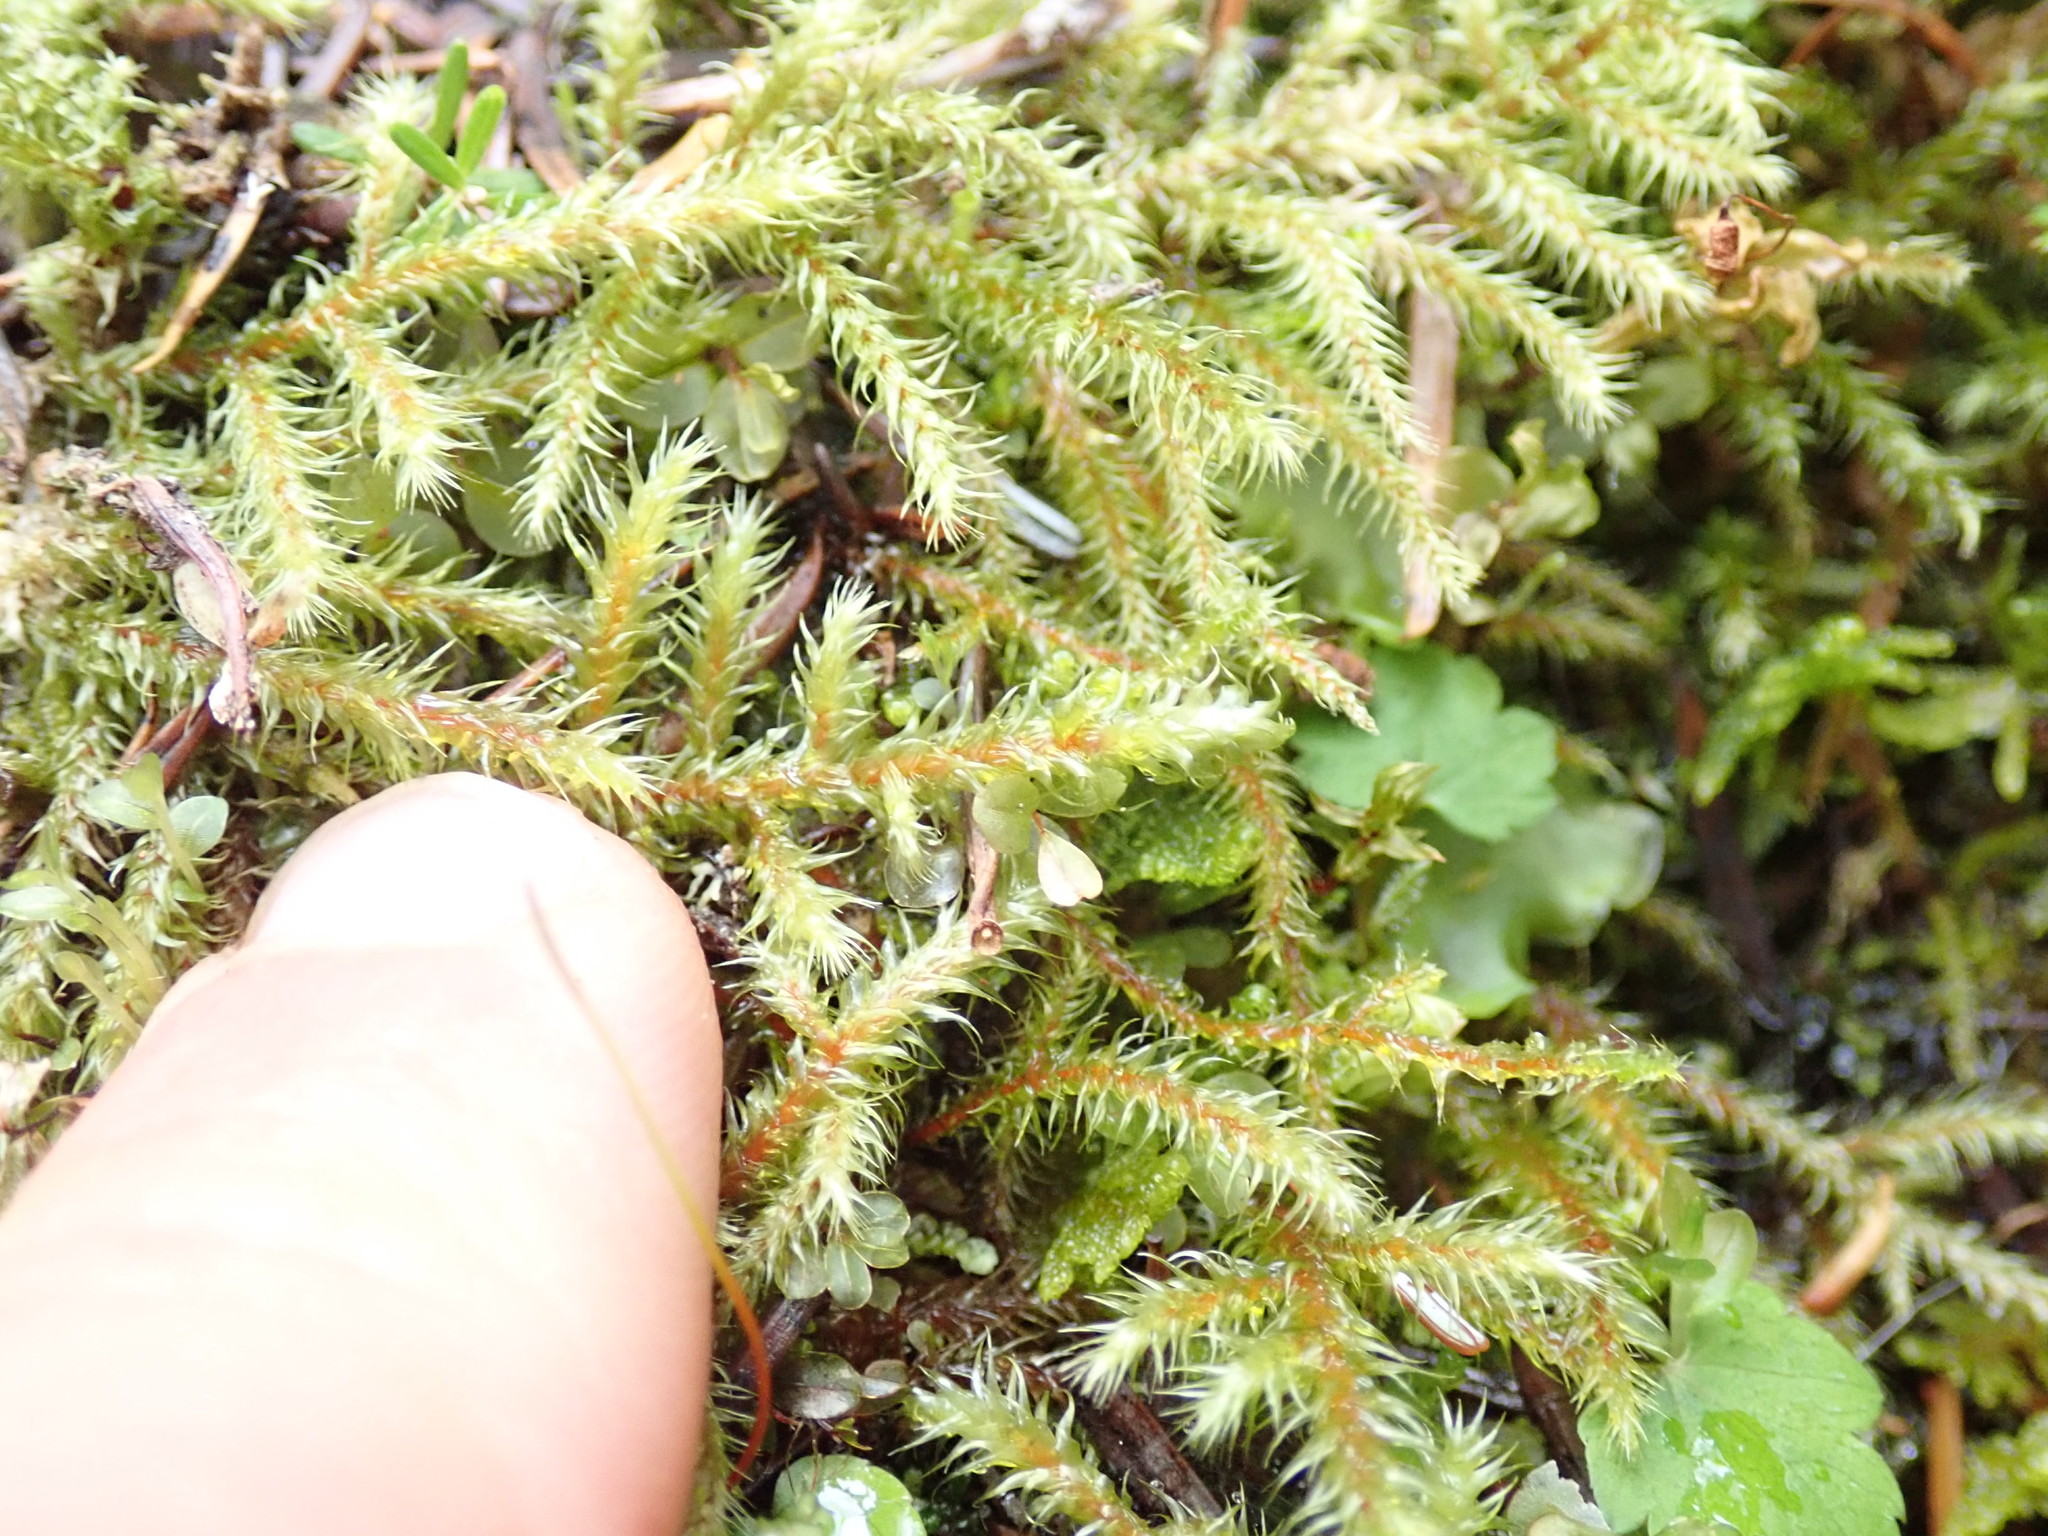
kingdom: Plantae
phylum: Bryophyta
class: Bryopsida
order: Hypnales
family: Hylocomiaceae
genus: Rhytidiadelphus
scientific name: Rhytidiadelphus loreus
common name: Lanky moss
